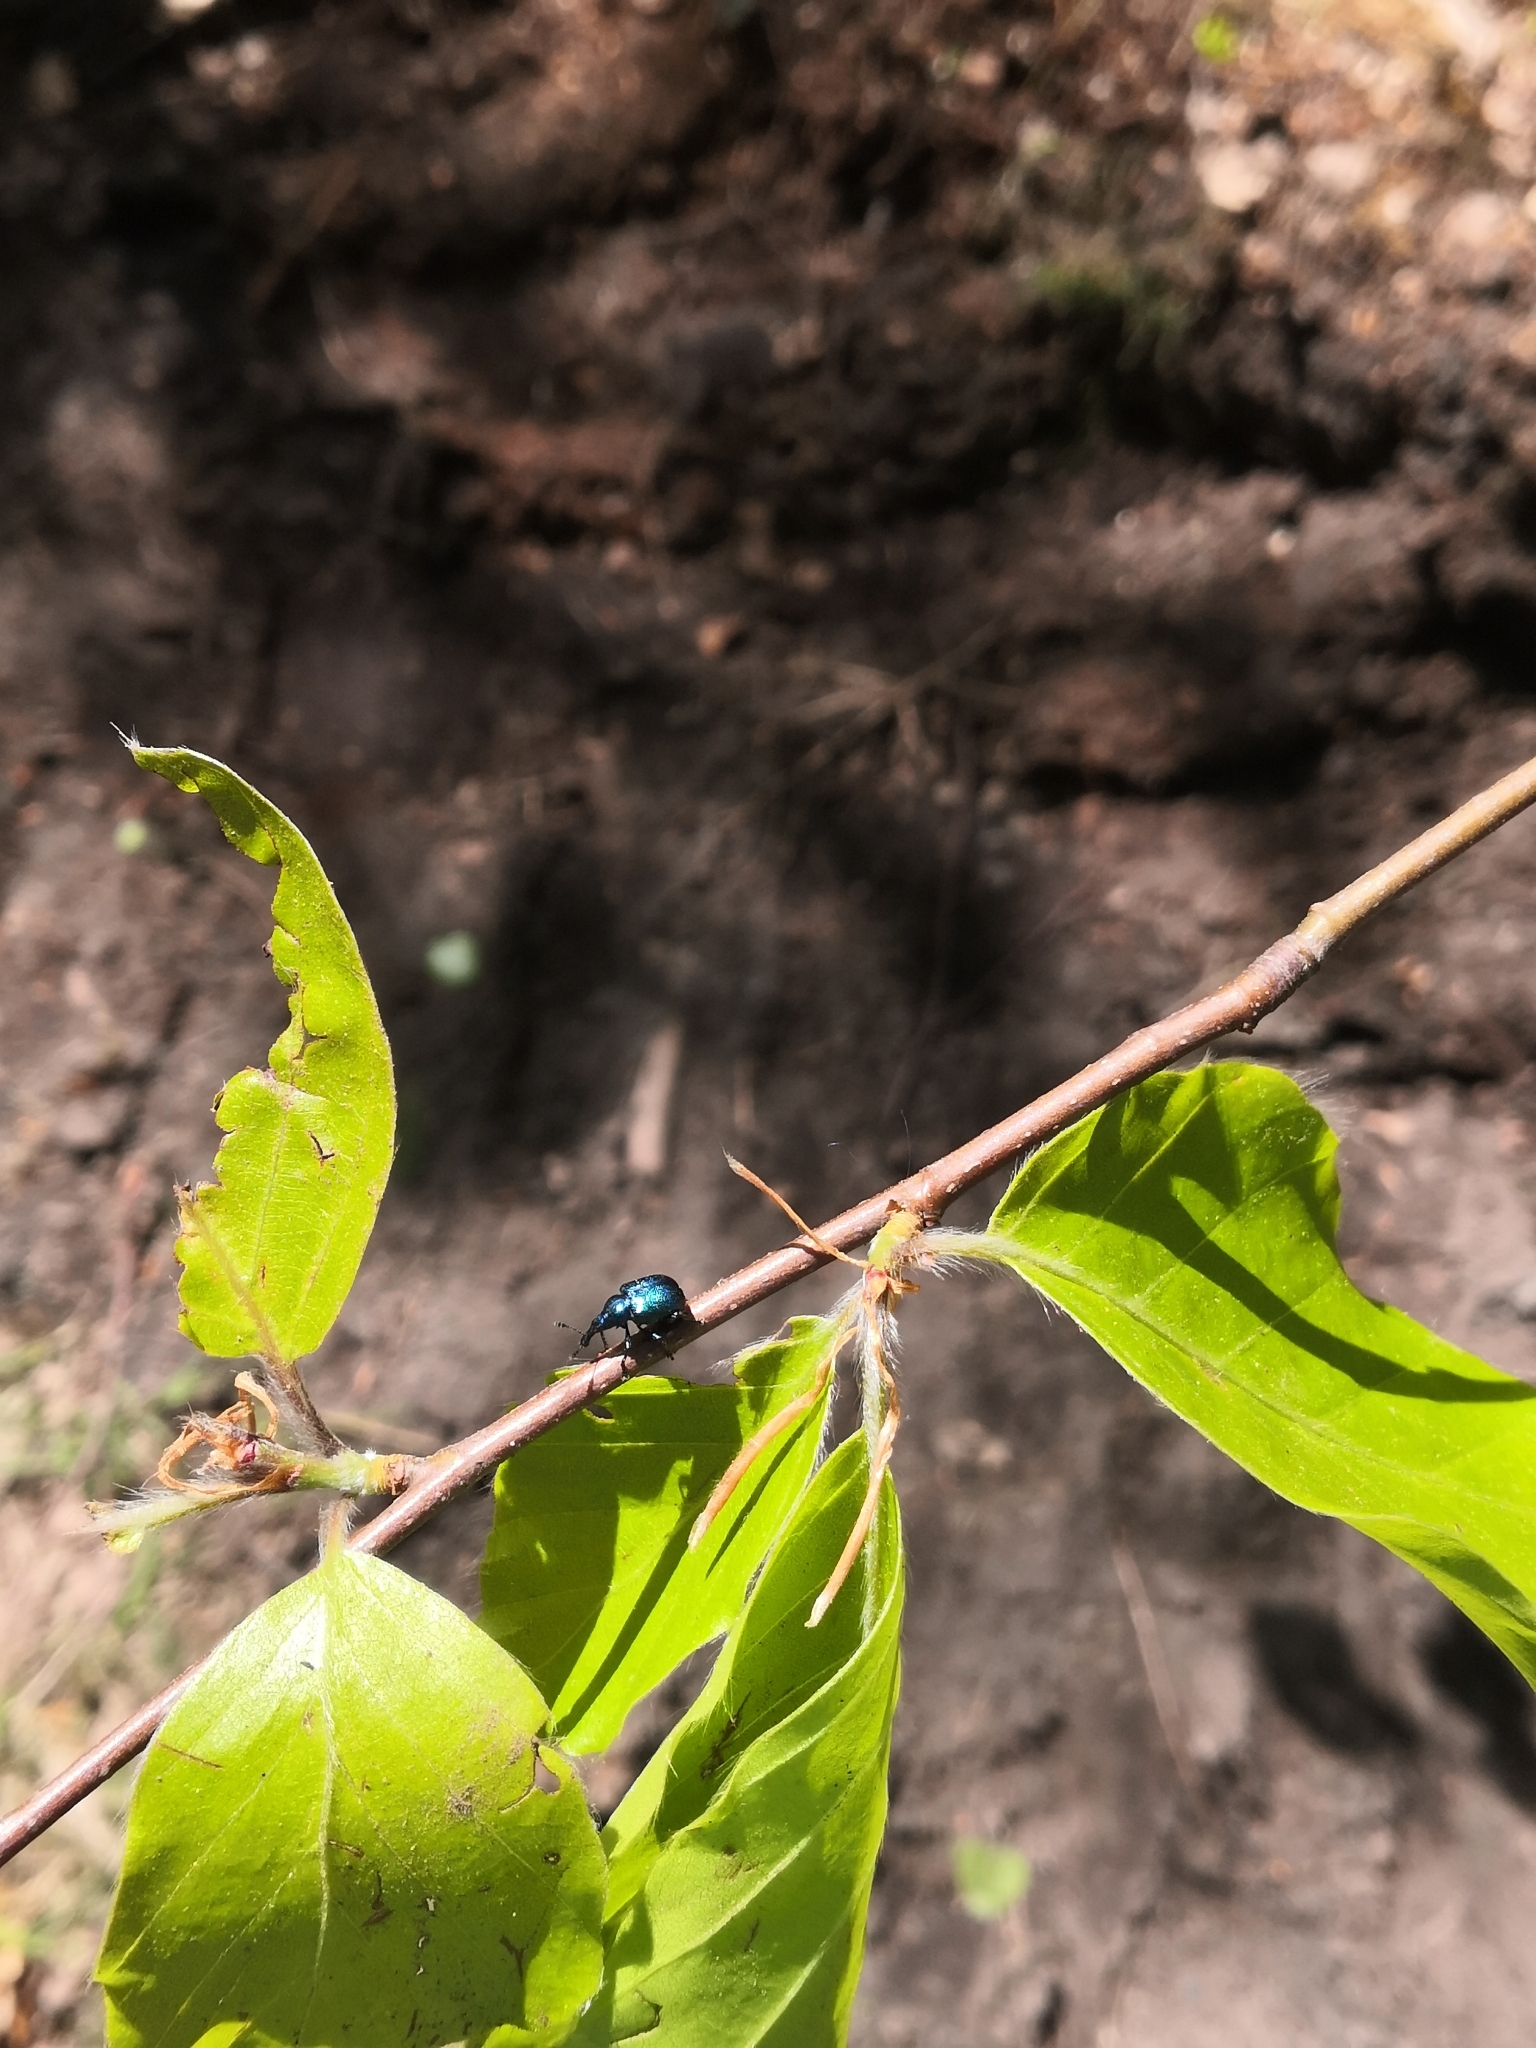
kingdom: Animalia
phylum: Arthropoda
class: Insecta
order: Coleoptera
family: Attelabidae
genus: Byctiscus
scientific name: Byctiscus betulae
